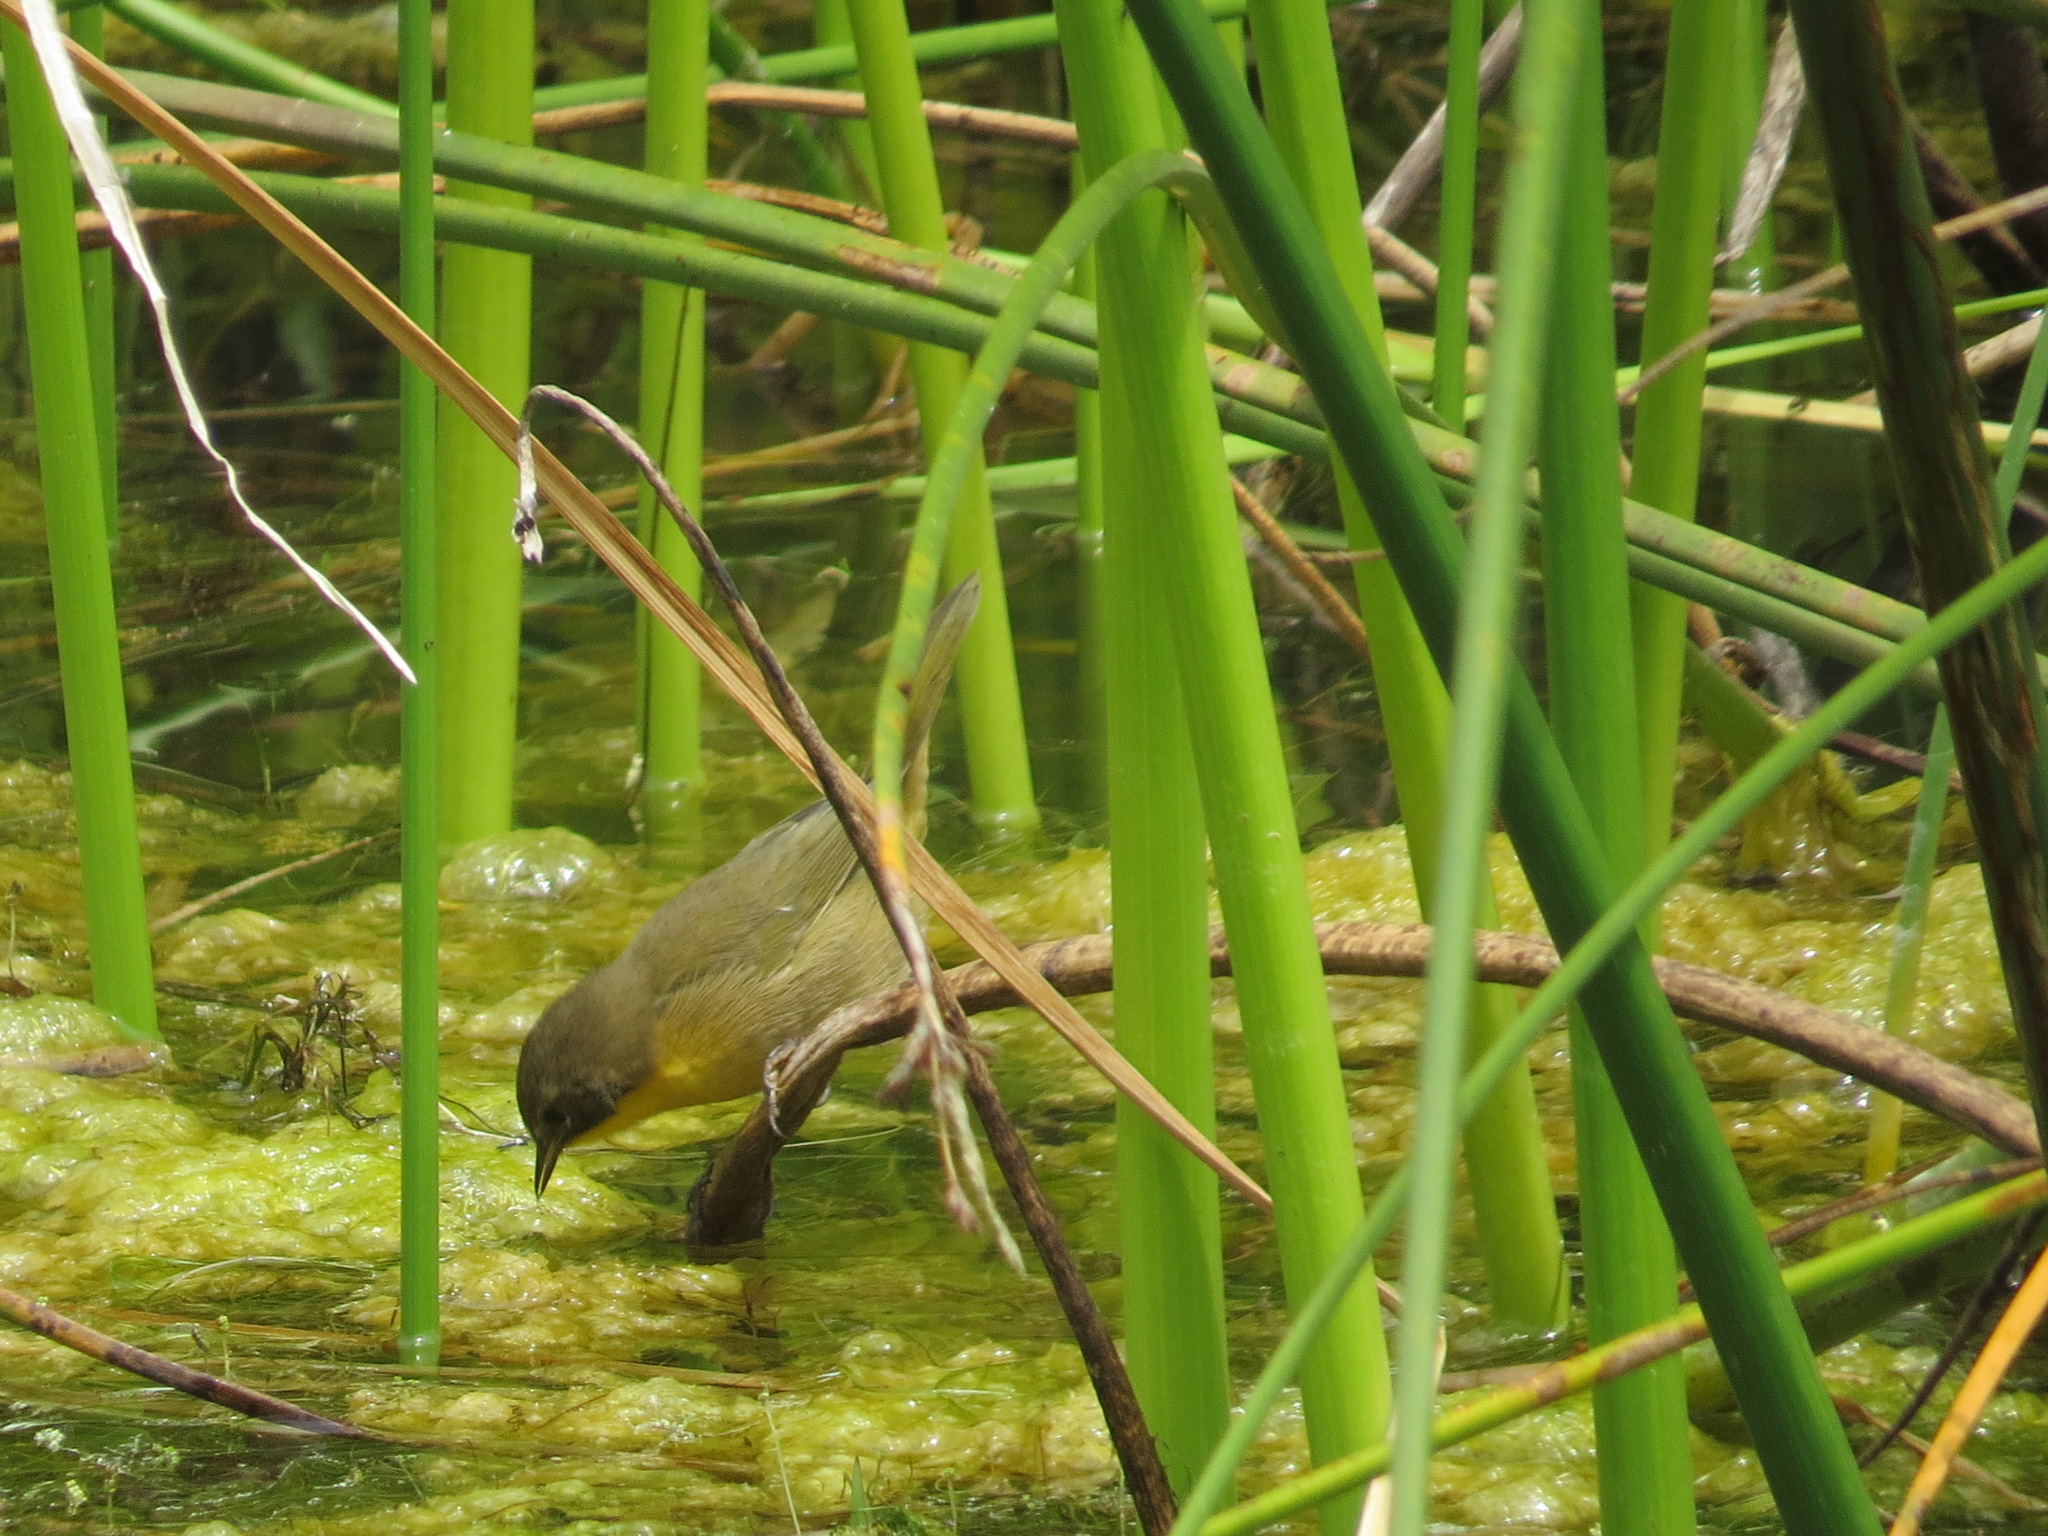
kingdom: Animalia
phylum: Chordata
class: Aves
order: Passeriformes
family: Parulidae
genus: Geothlypis
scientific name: Geothlypis trichas
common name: Common yellowthroat
